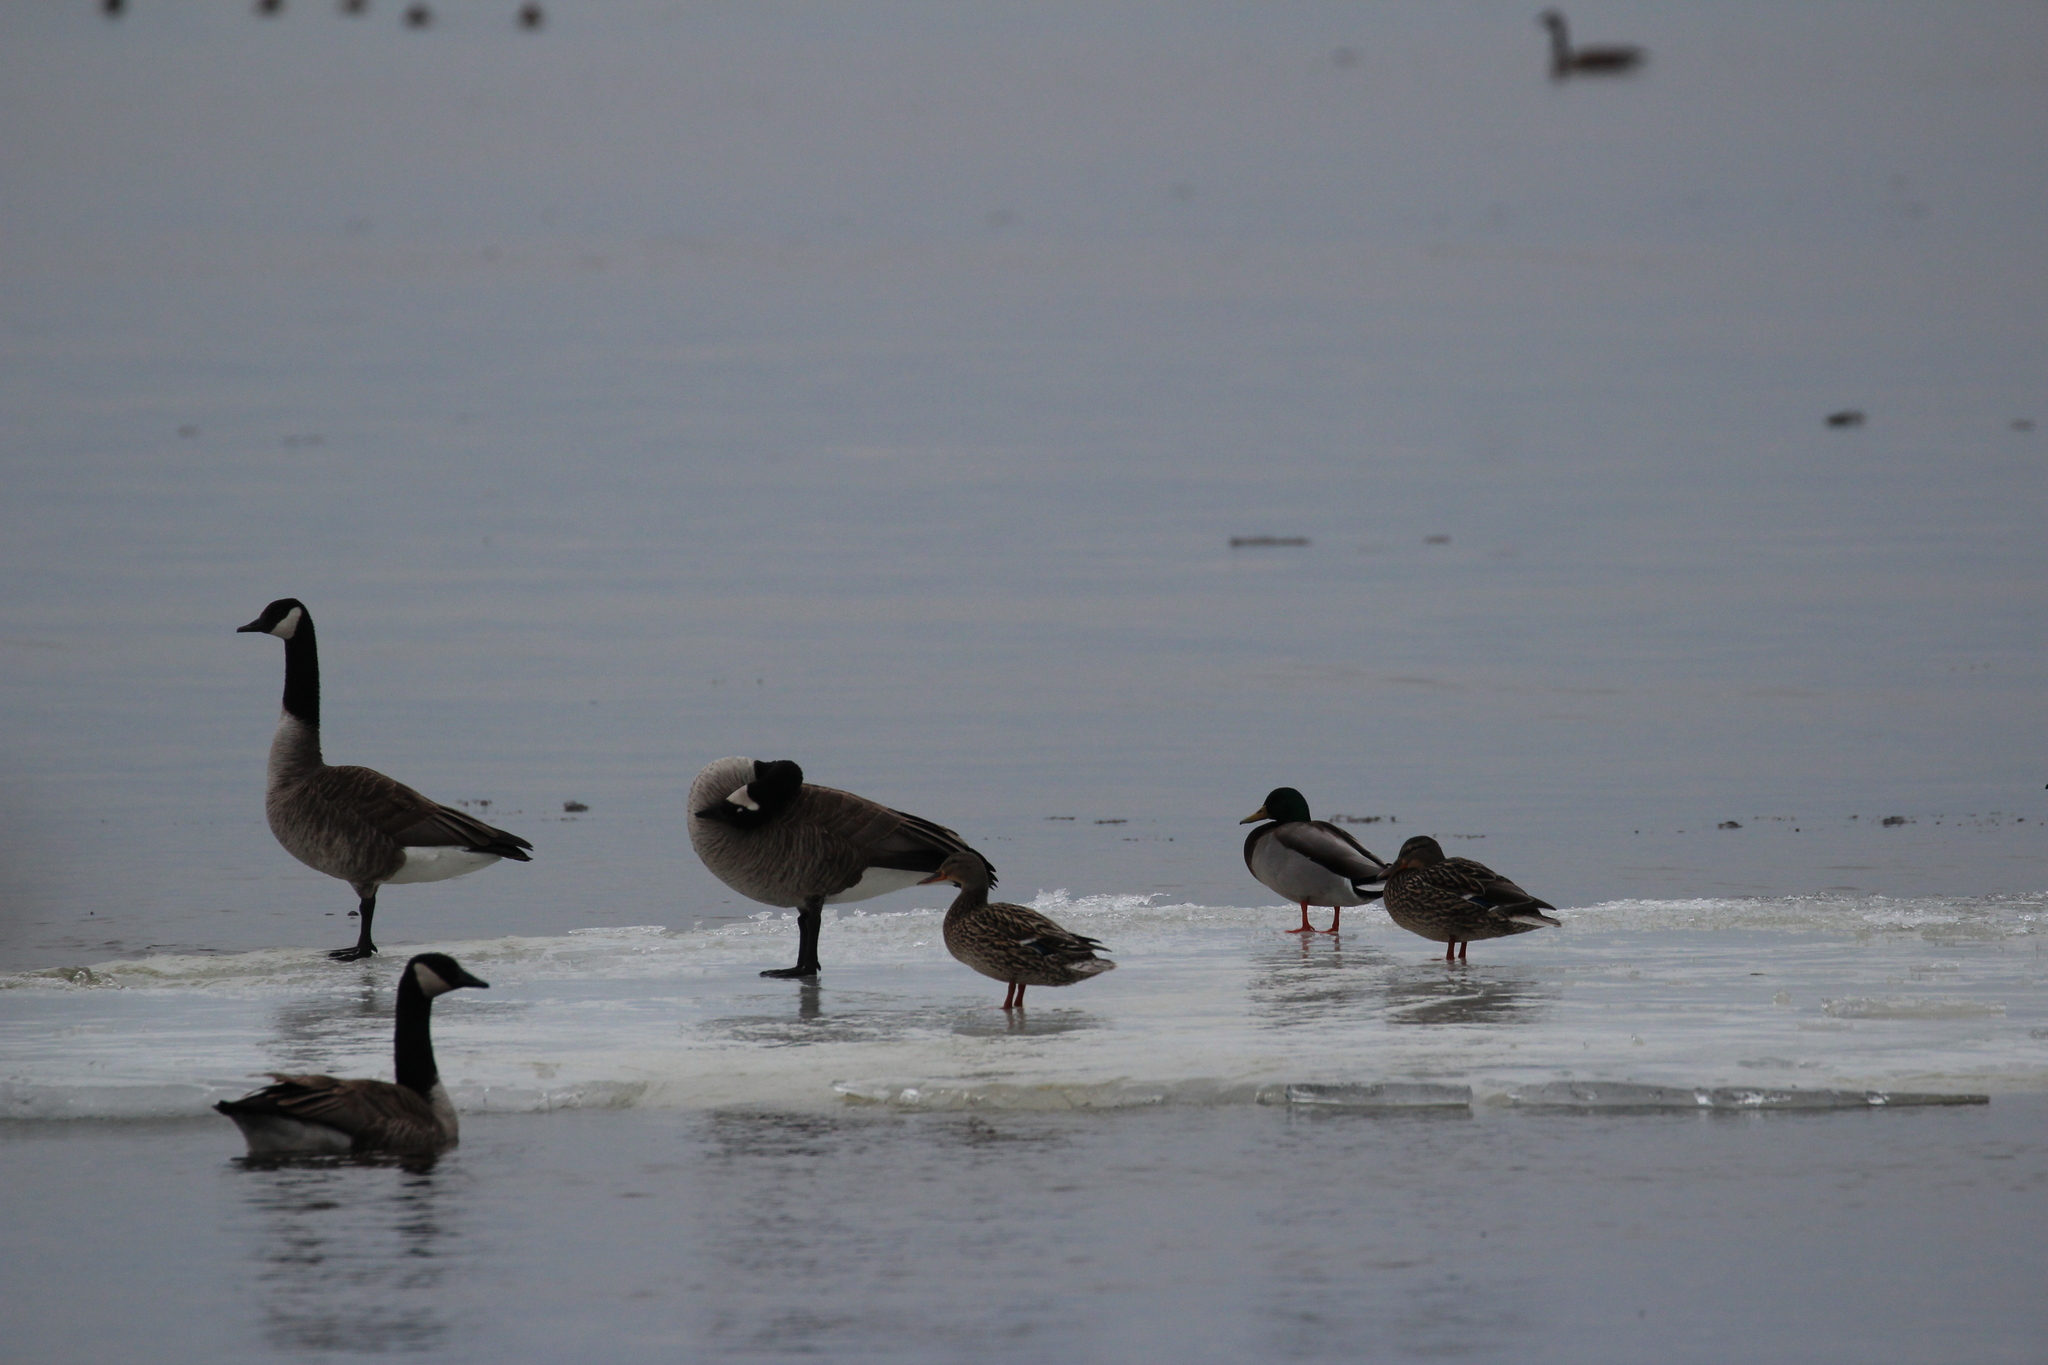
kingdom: Animalia
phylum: Chordata
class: Aves
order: Anseriformes
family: Anatidae
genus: Branta
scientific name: Branta canadensis
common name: Canada goose
